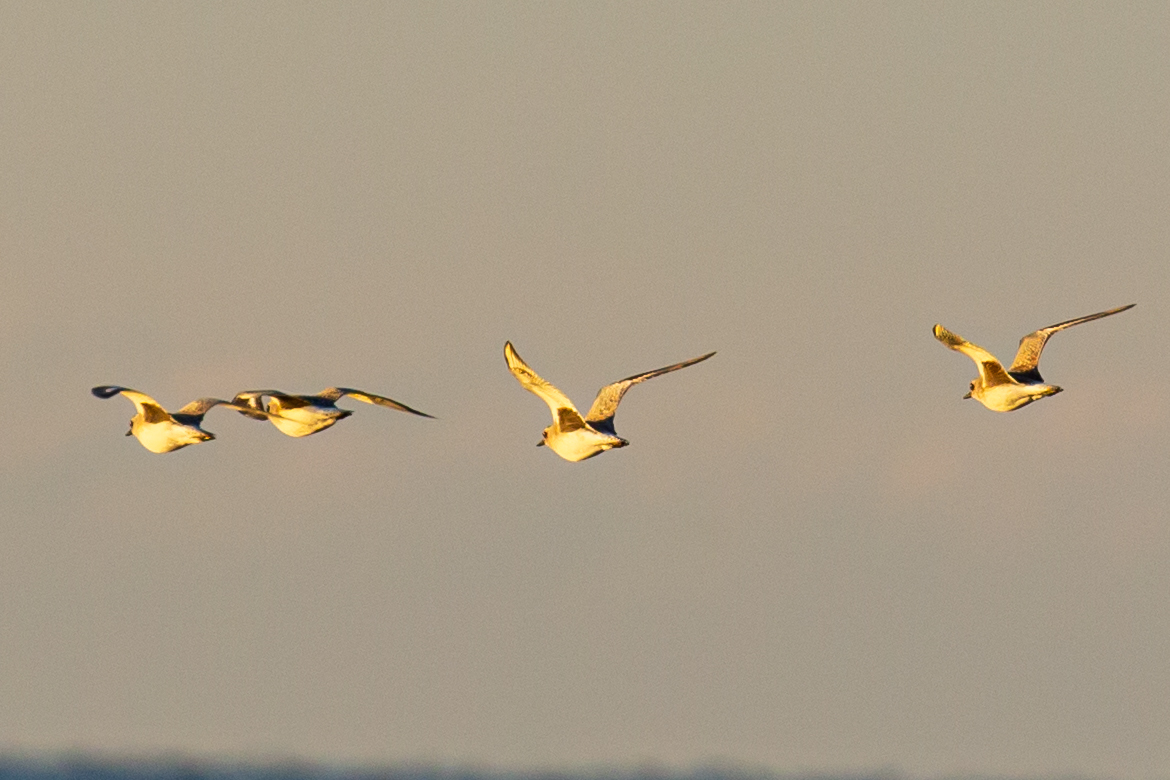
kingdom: Animalia
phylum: Chordata
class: Aves
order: Charadriiformes
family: Charadriidae
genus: Pluvialis
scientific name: Pluvialis squatarola
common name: Grey plover
